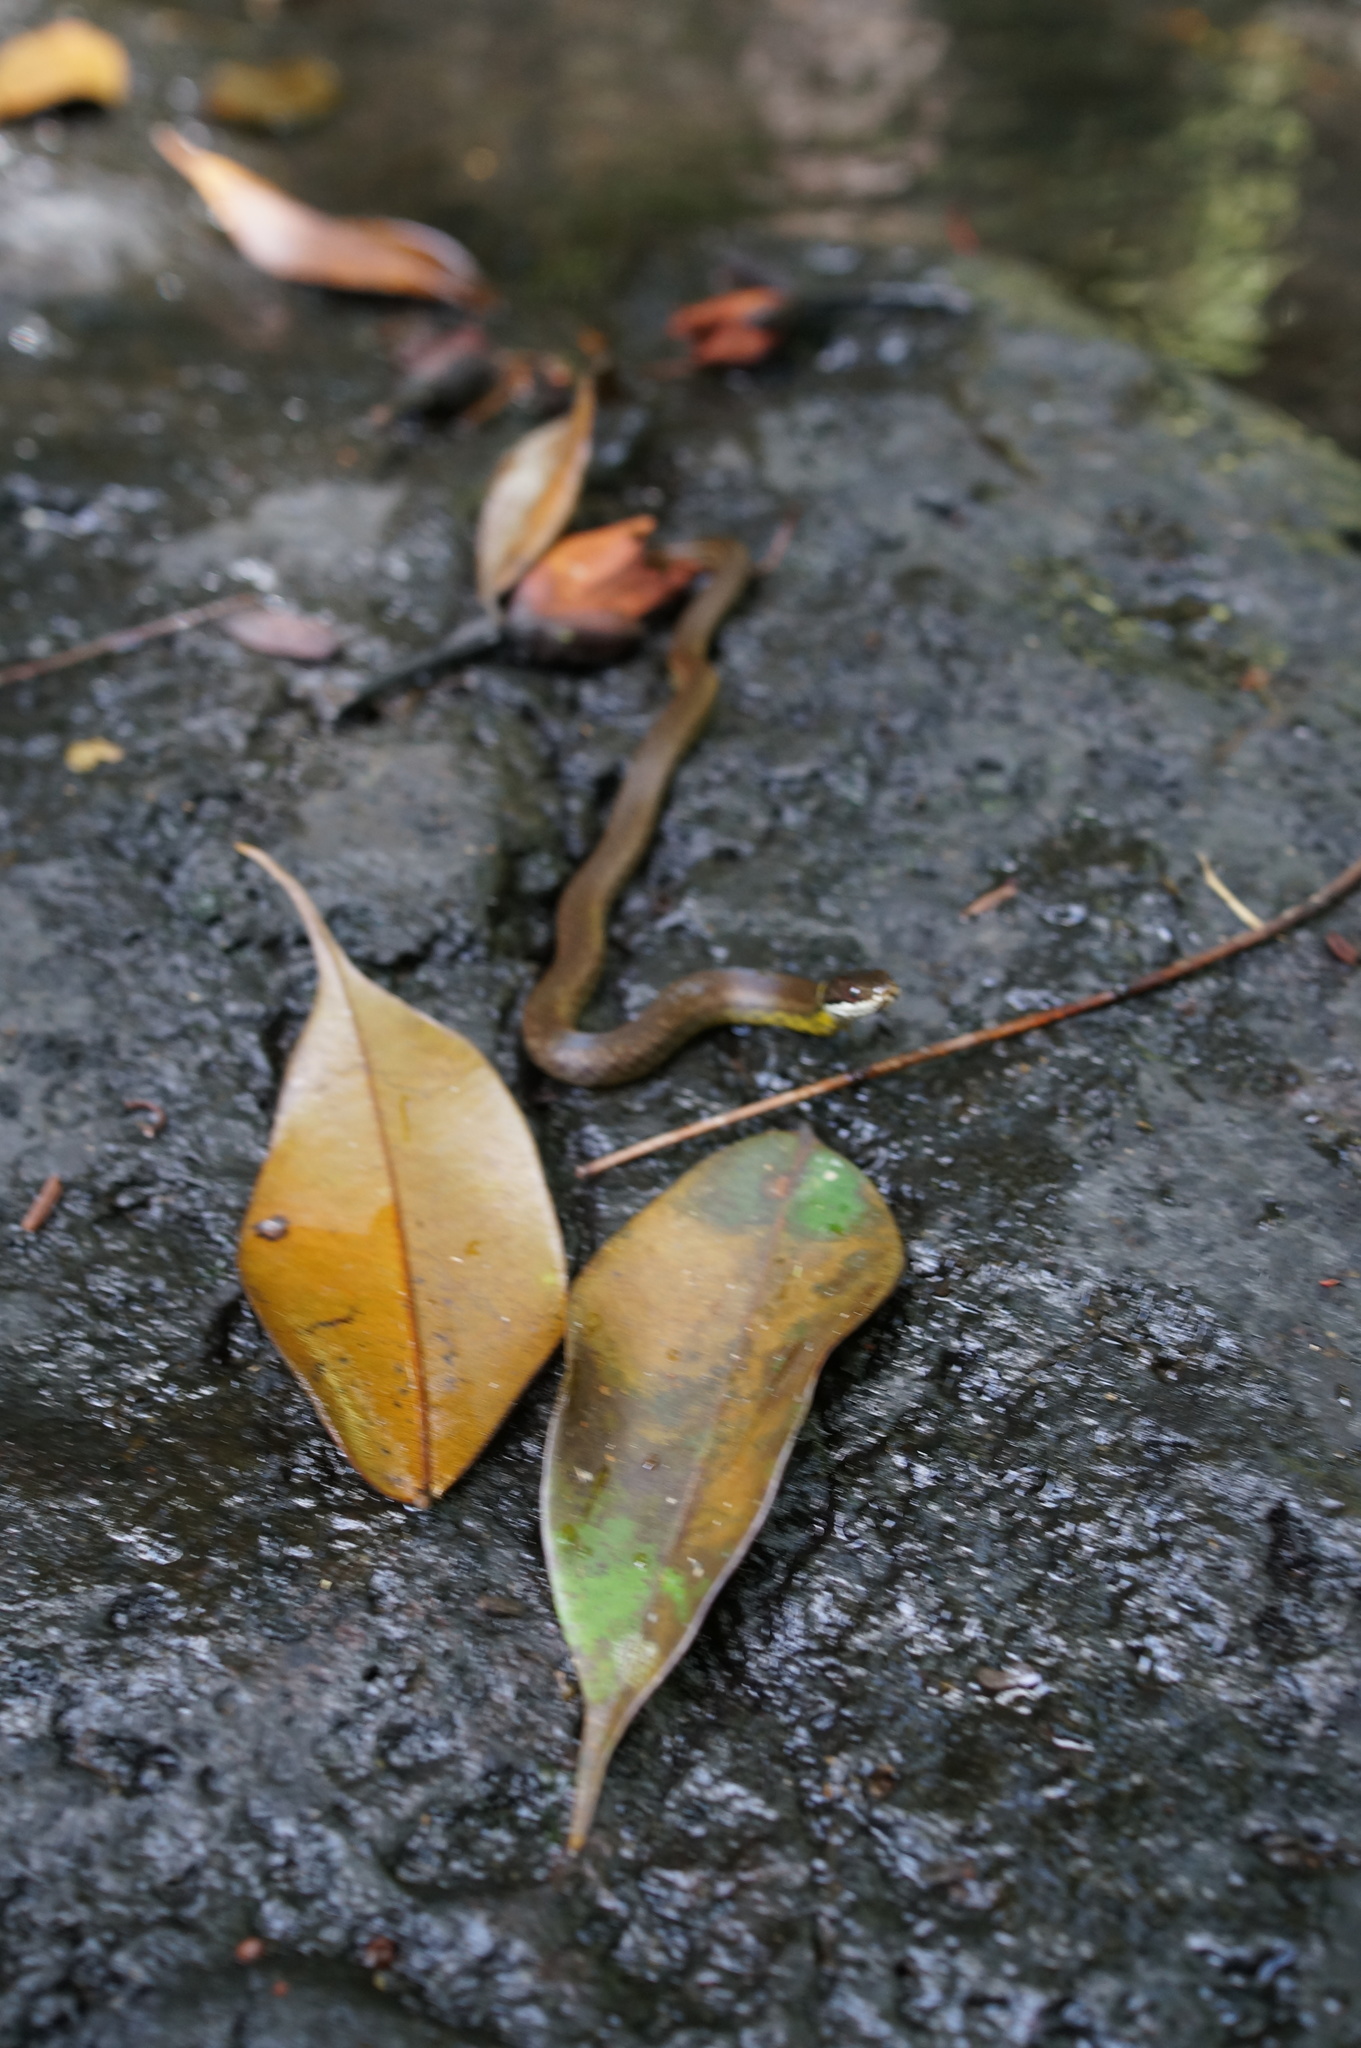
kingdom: Animalia
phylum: Chordata
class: Squamata
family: Colubridae
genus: Erythrolamprus
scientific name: Erythrolamprus miliaris
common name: Military ground snake
